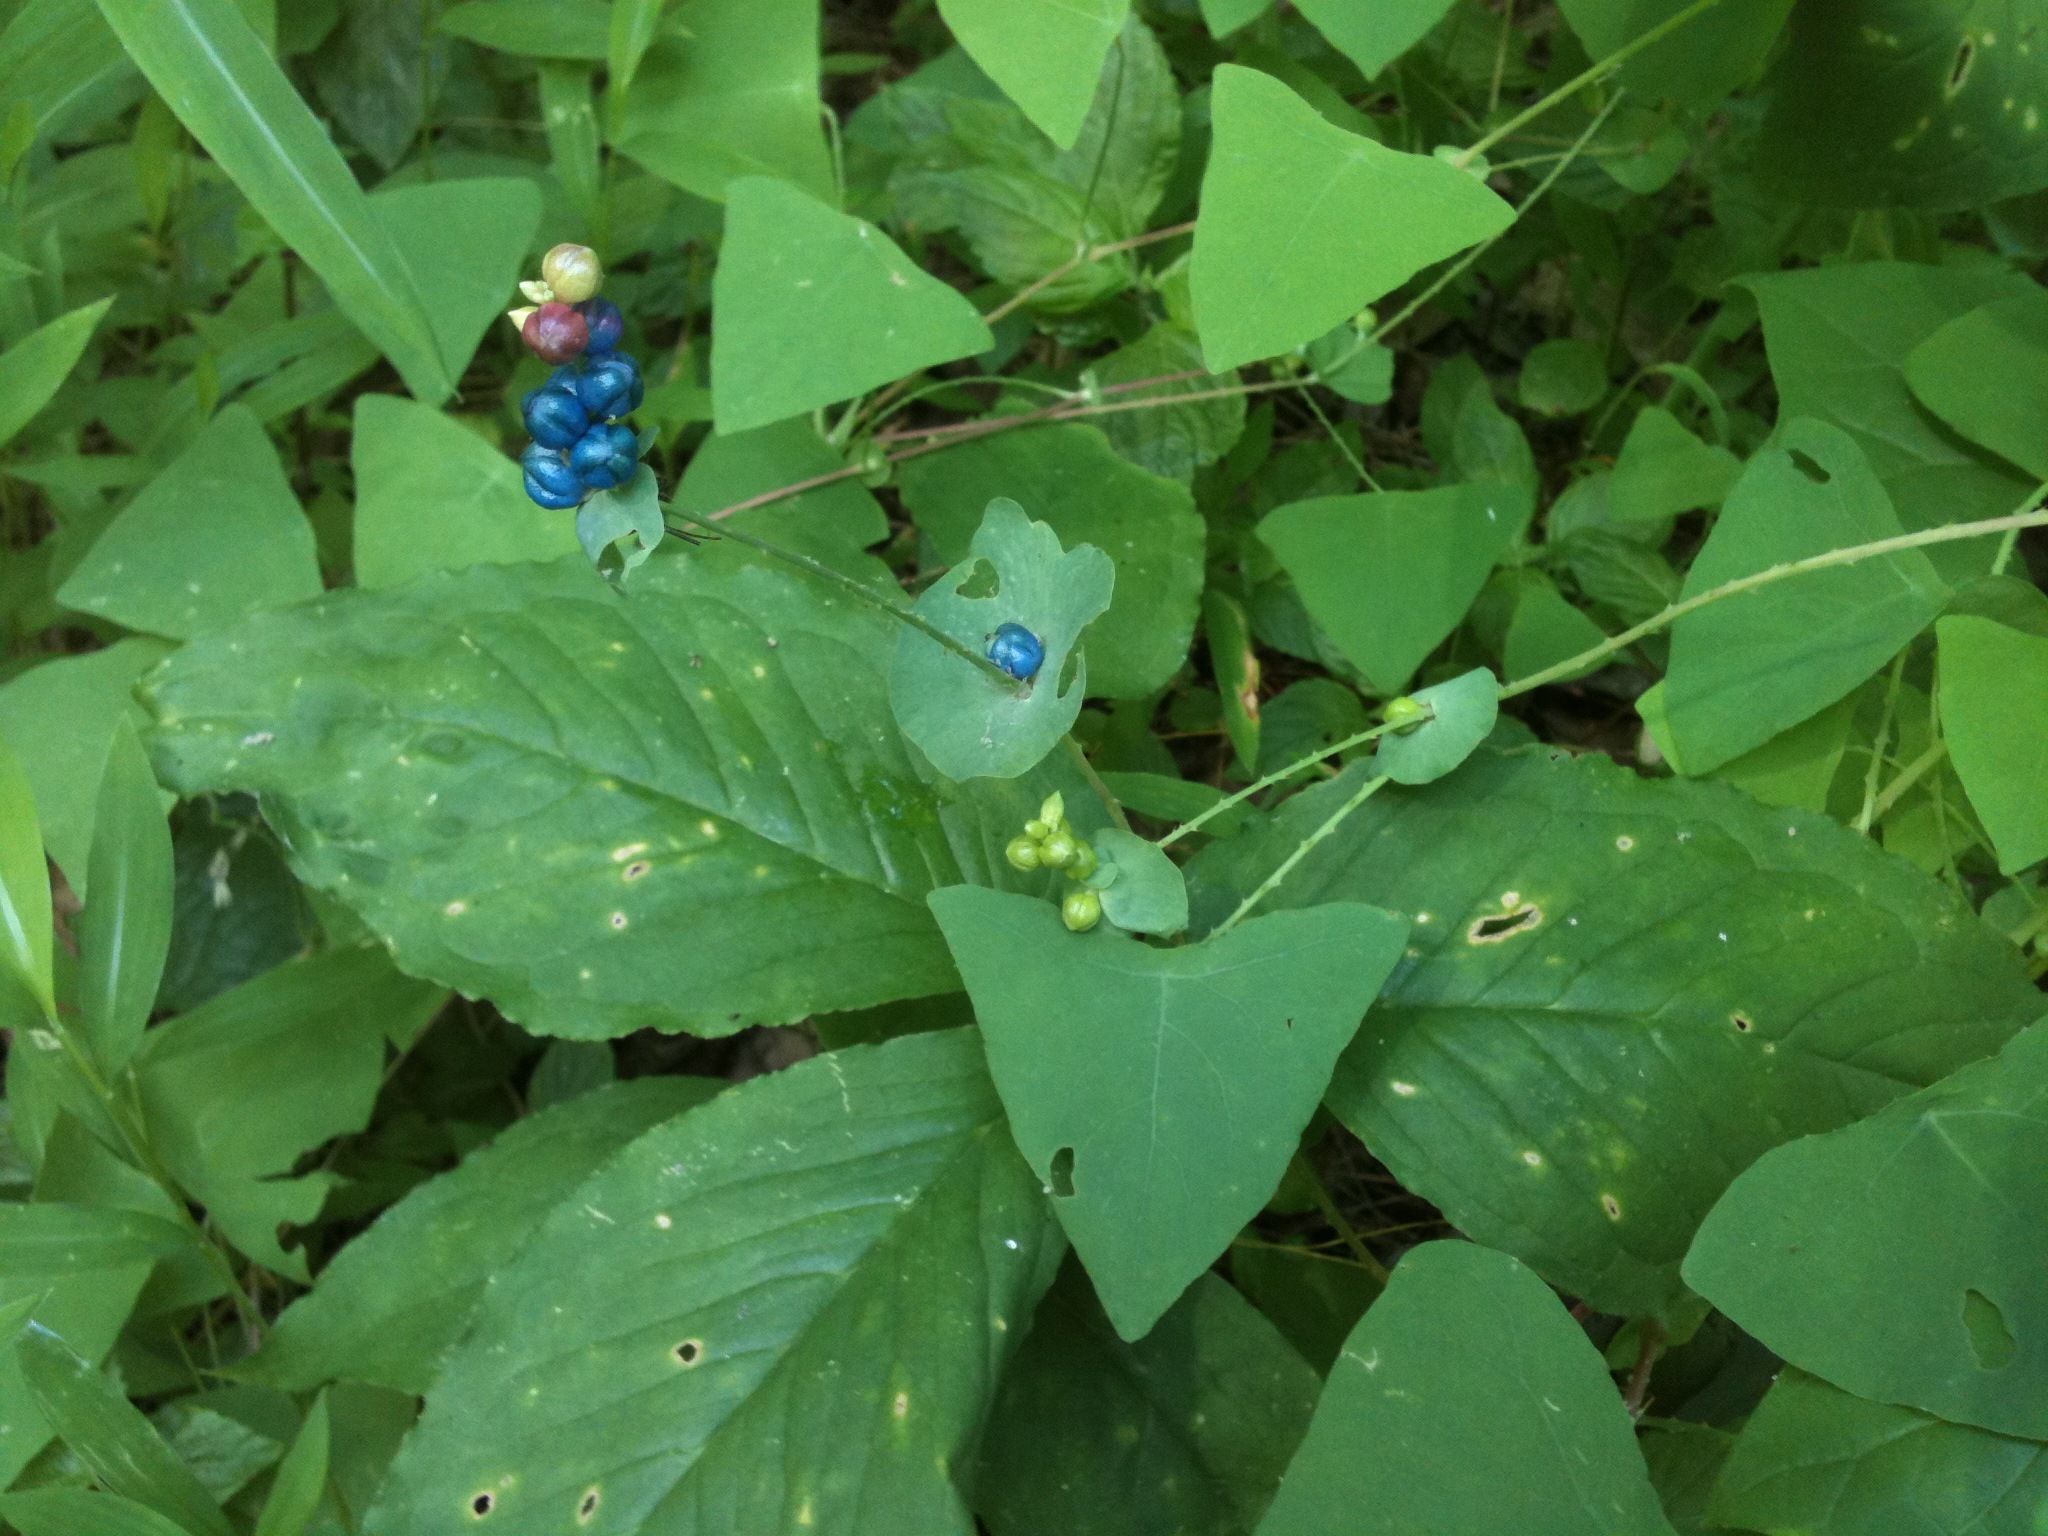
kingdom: Plantae
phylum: Tracheophyta
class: Magnoliopsida
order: Caryophyllales
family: Polygonaceae
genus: Persicaria
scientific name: Persicaria perfoliata
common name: Asiatic tearthumb
